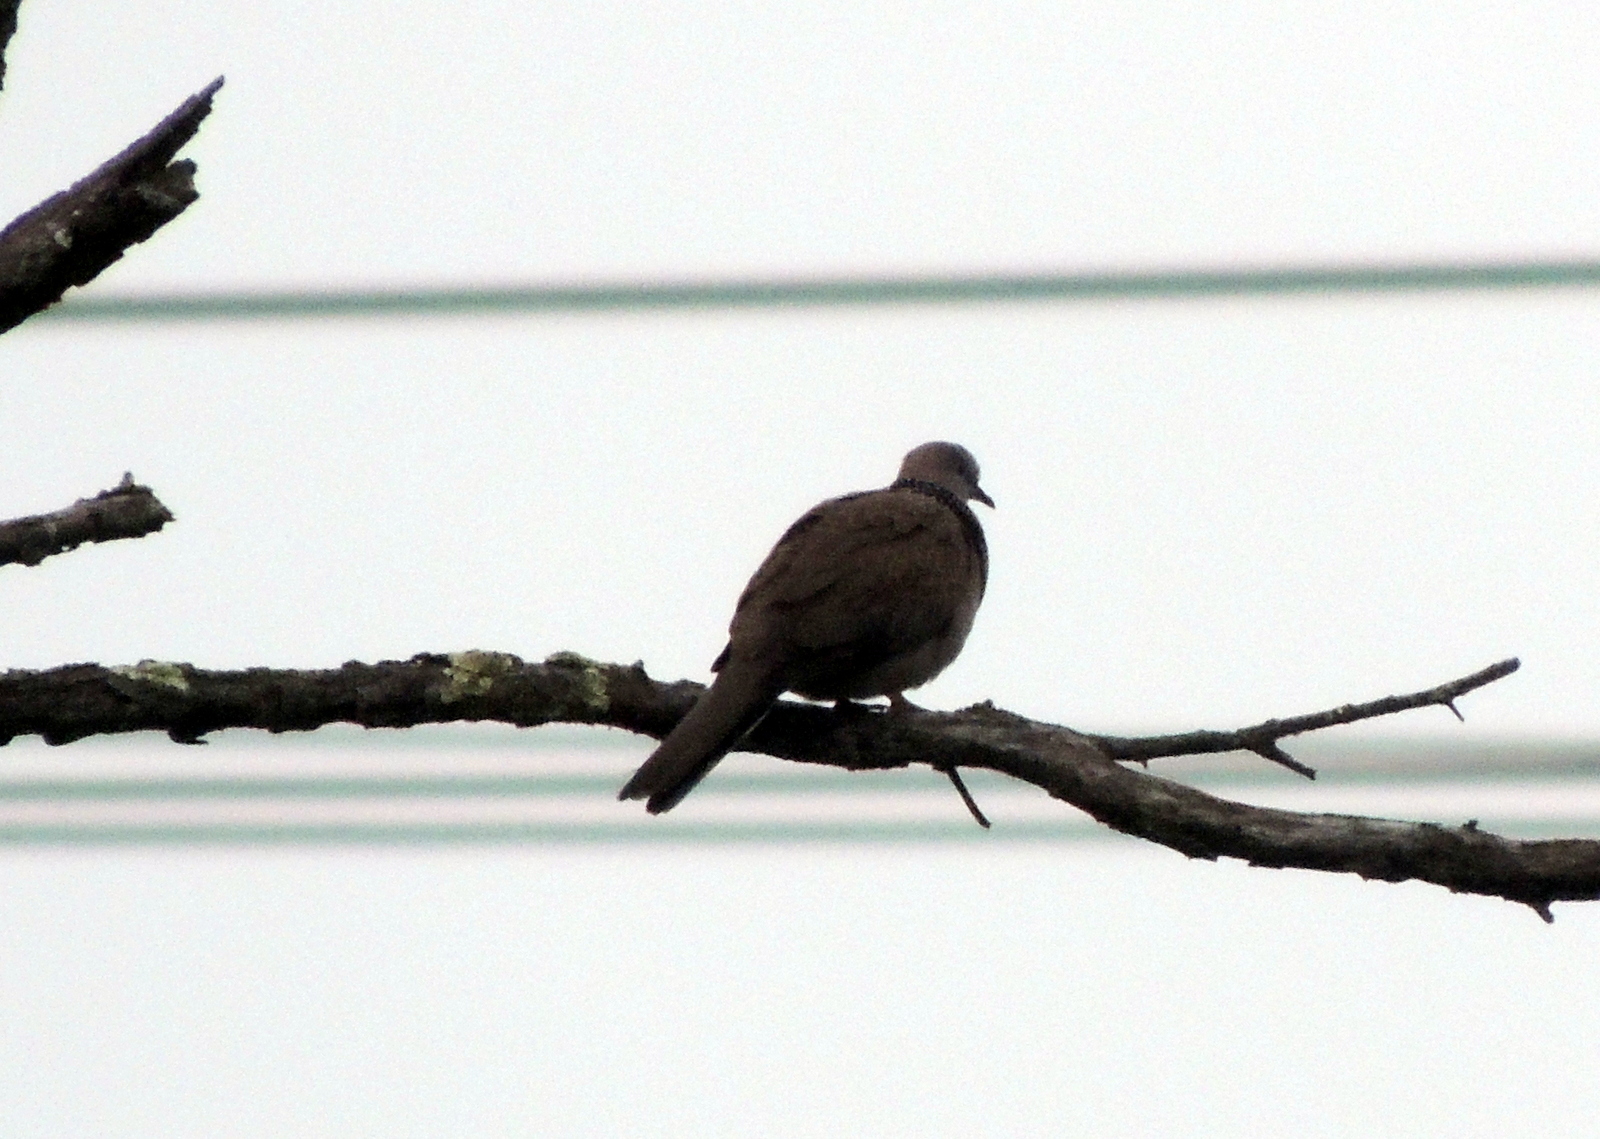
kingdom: Animalia
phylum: Chordata
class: Aves
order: Columbiformes
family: Columbidae
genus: Spilopelia
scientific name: Spilopelia chinensis
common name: Spotted dove
